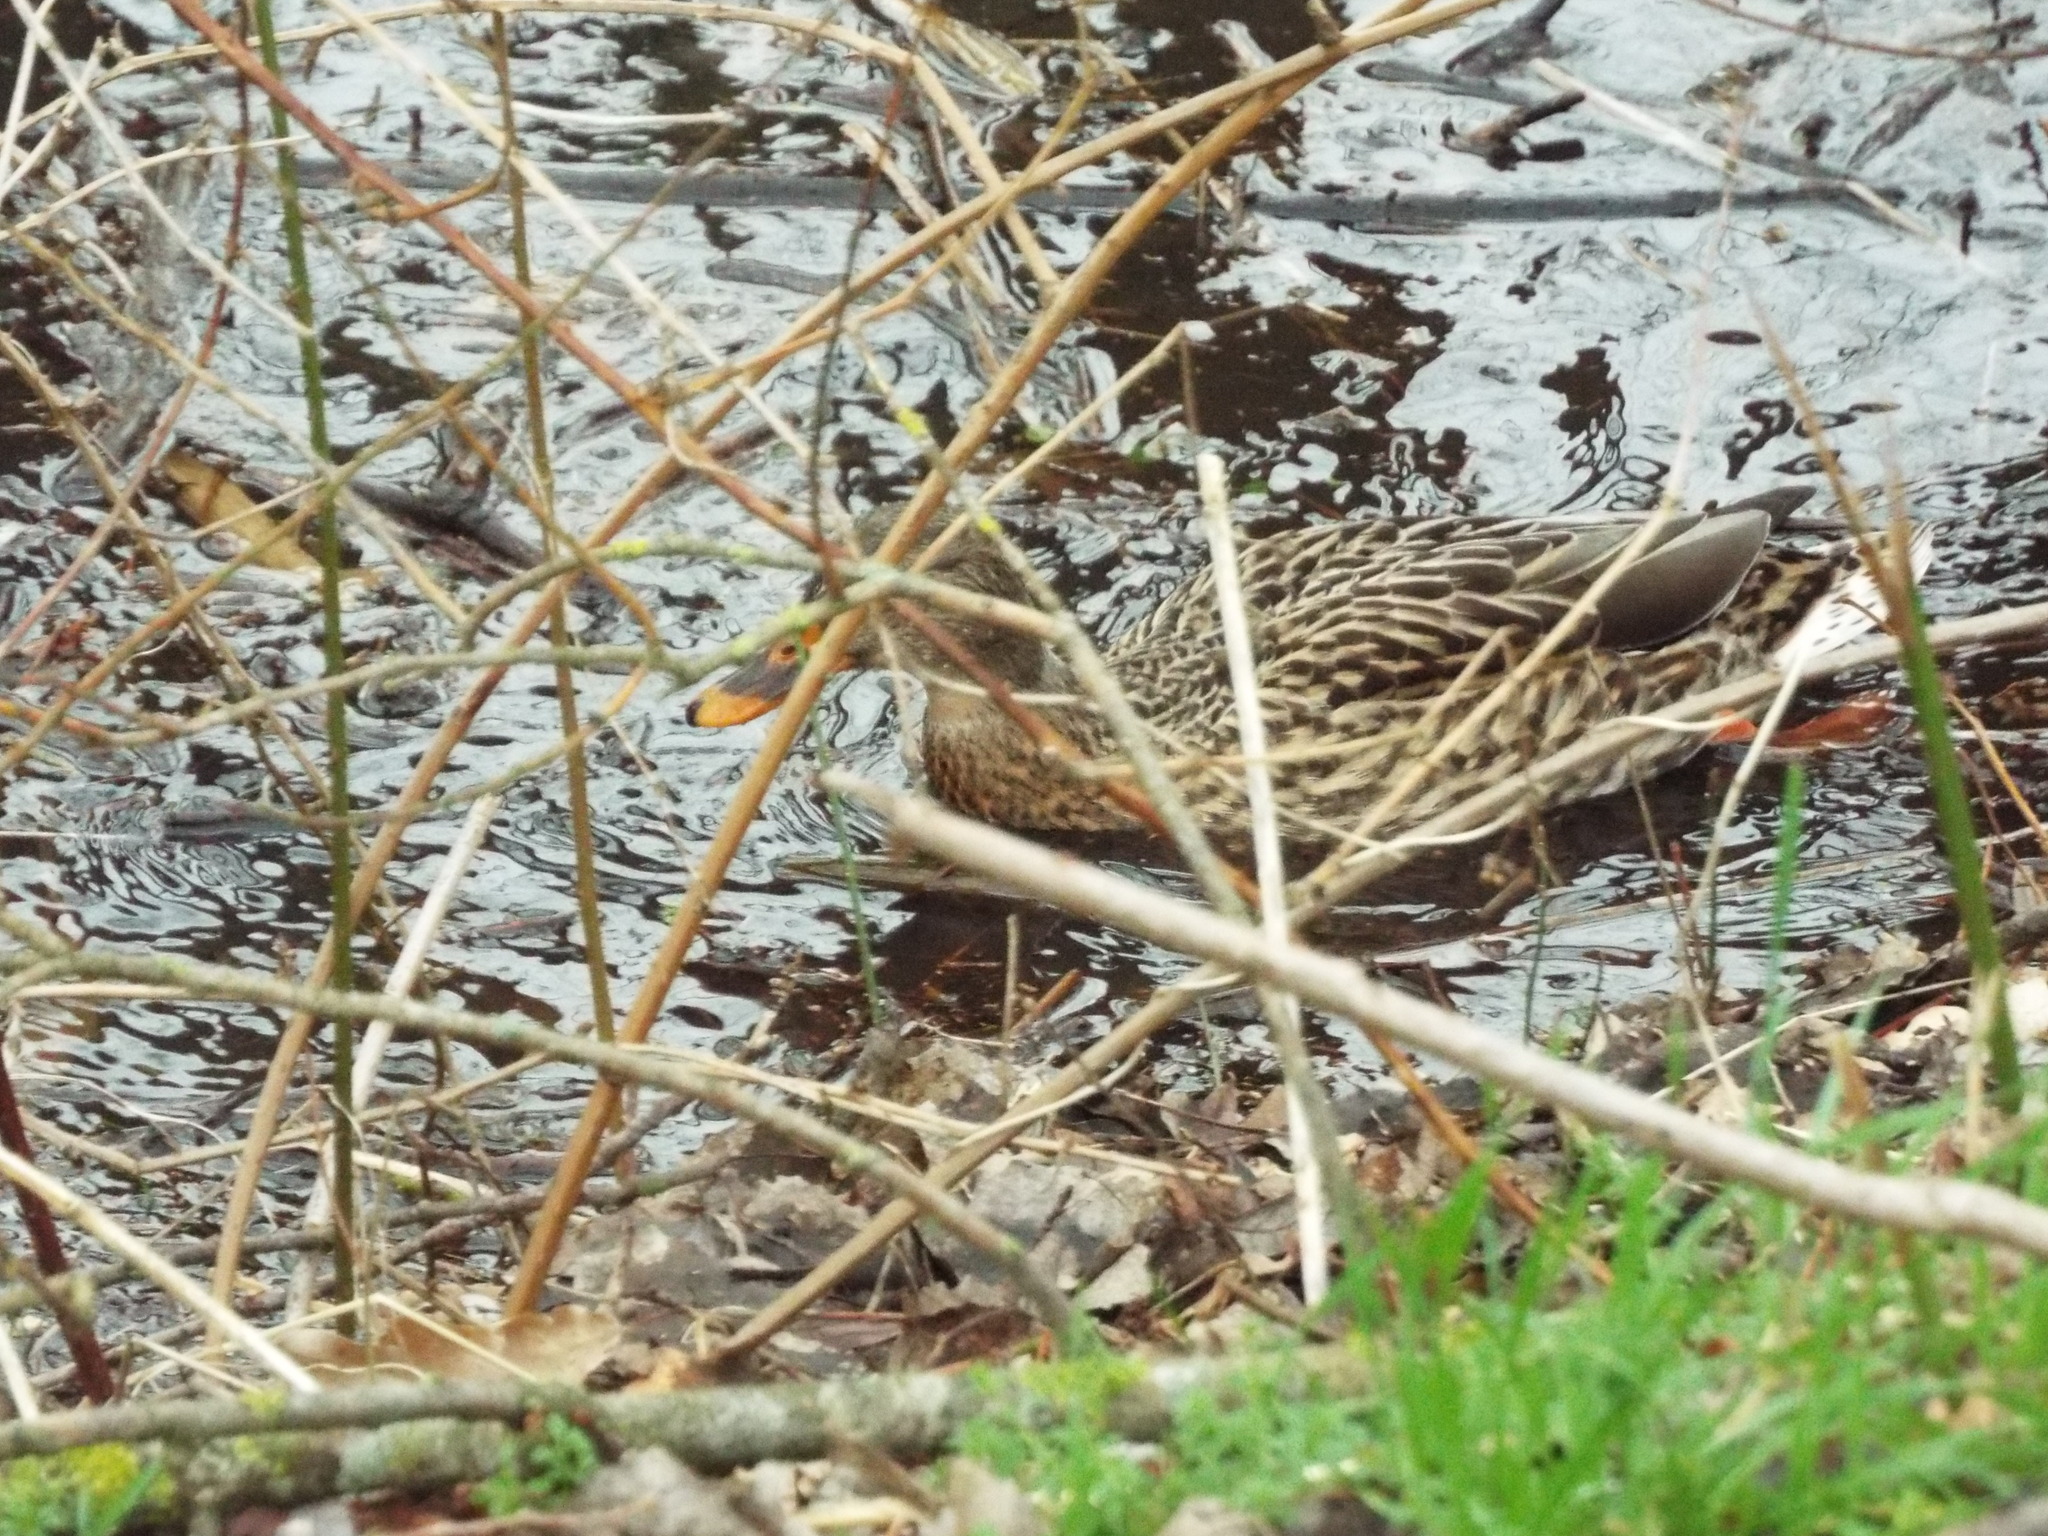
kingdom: Animalia
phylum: Chordata
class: Aves
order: Anseriformes
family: Anatidae
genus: Anas
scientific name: Anas platyrhynchos
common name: Mallard
